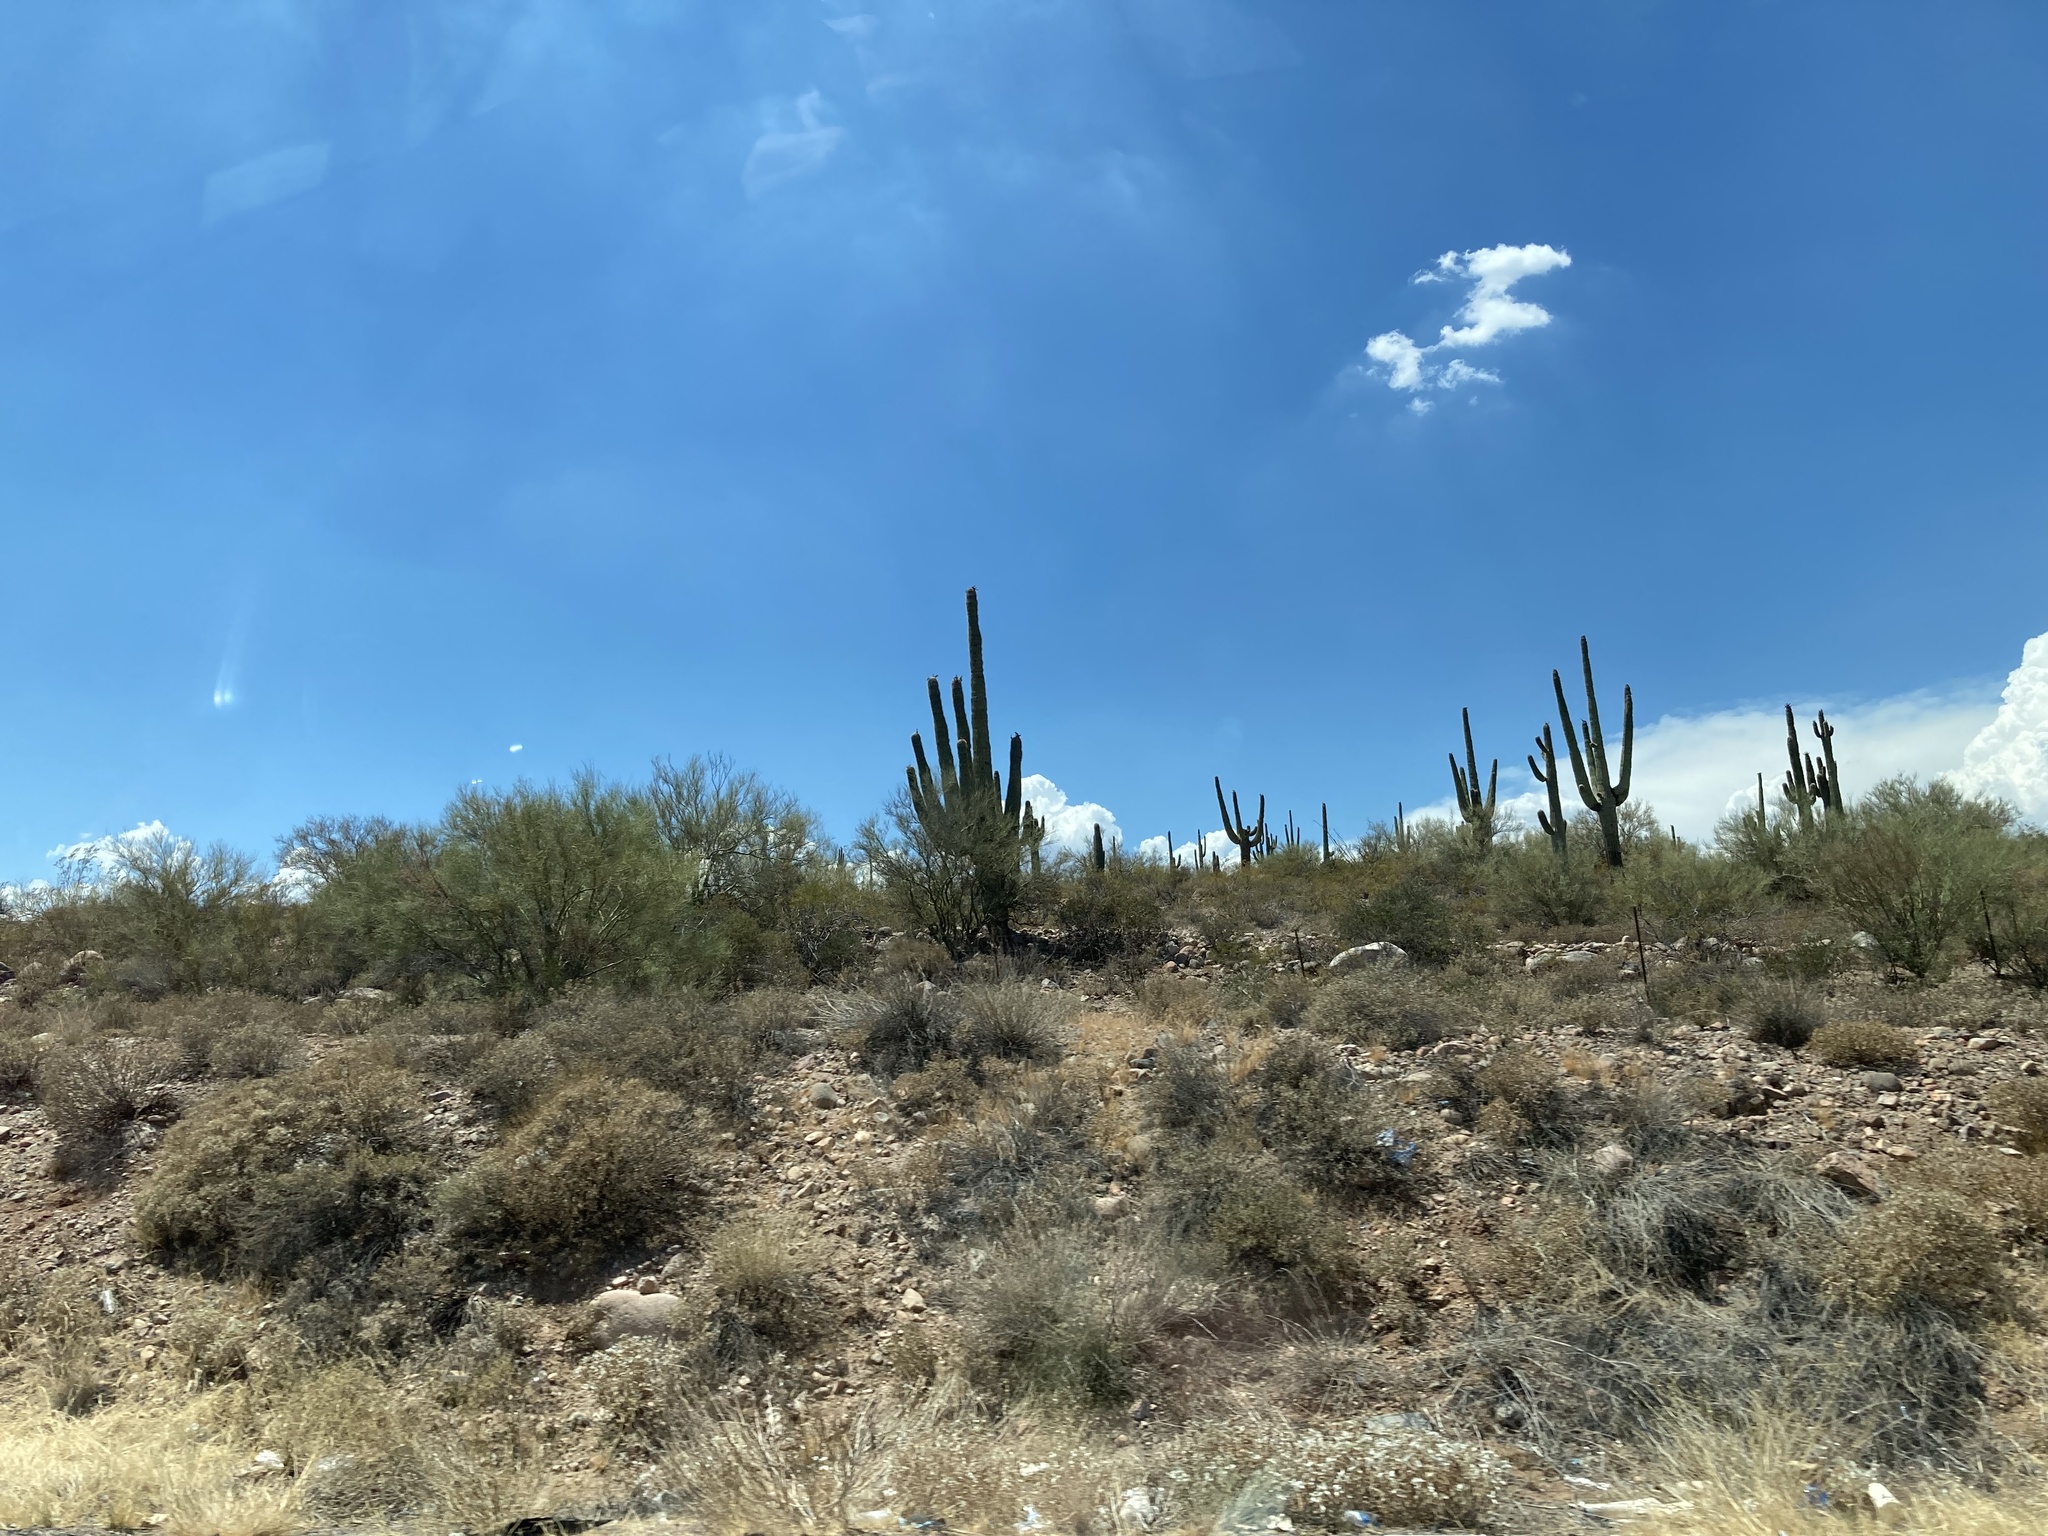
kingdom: Plantae
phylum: Tracheophyta
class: Magnoliopsida
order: Caryophyllales
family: Cactaceae
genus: Carnegiea
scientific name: Carnegiea gigantea
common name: Saguaro
